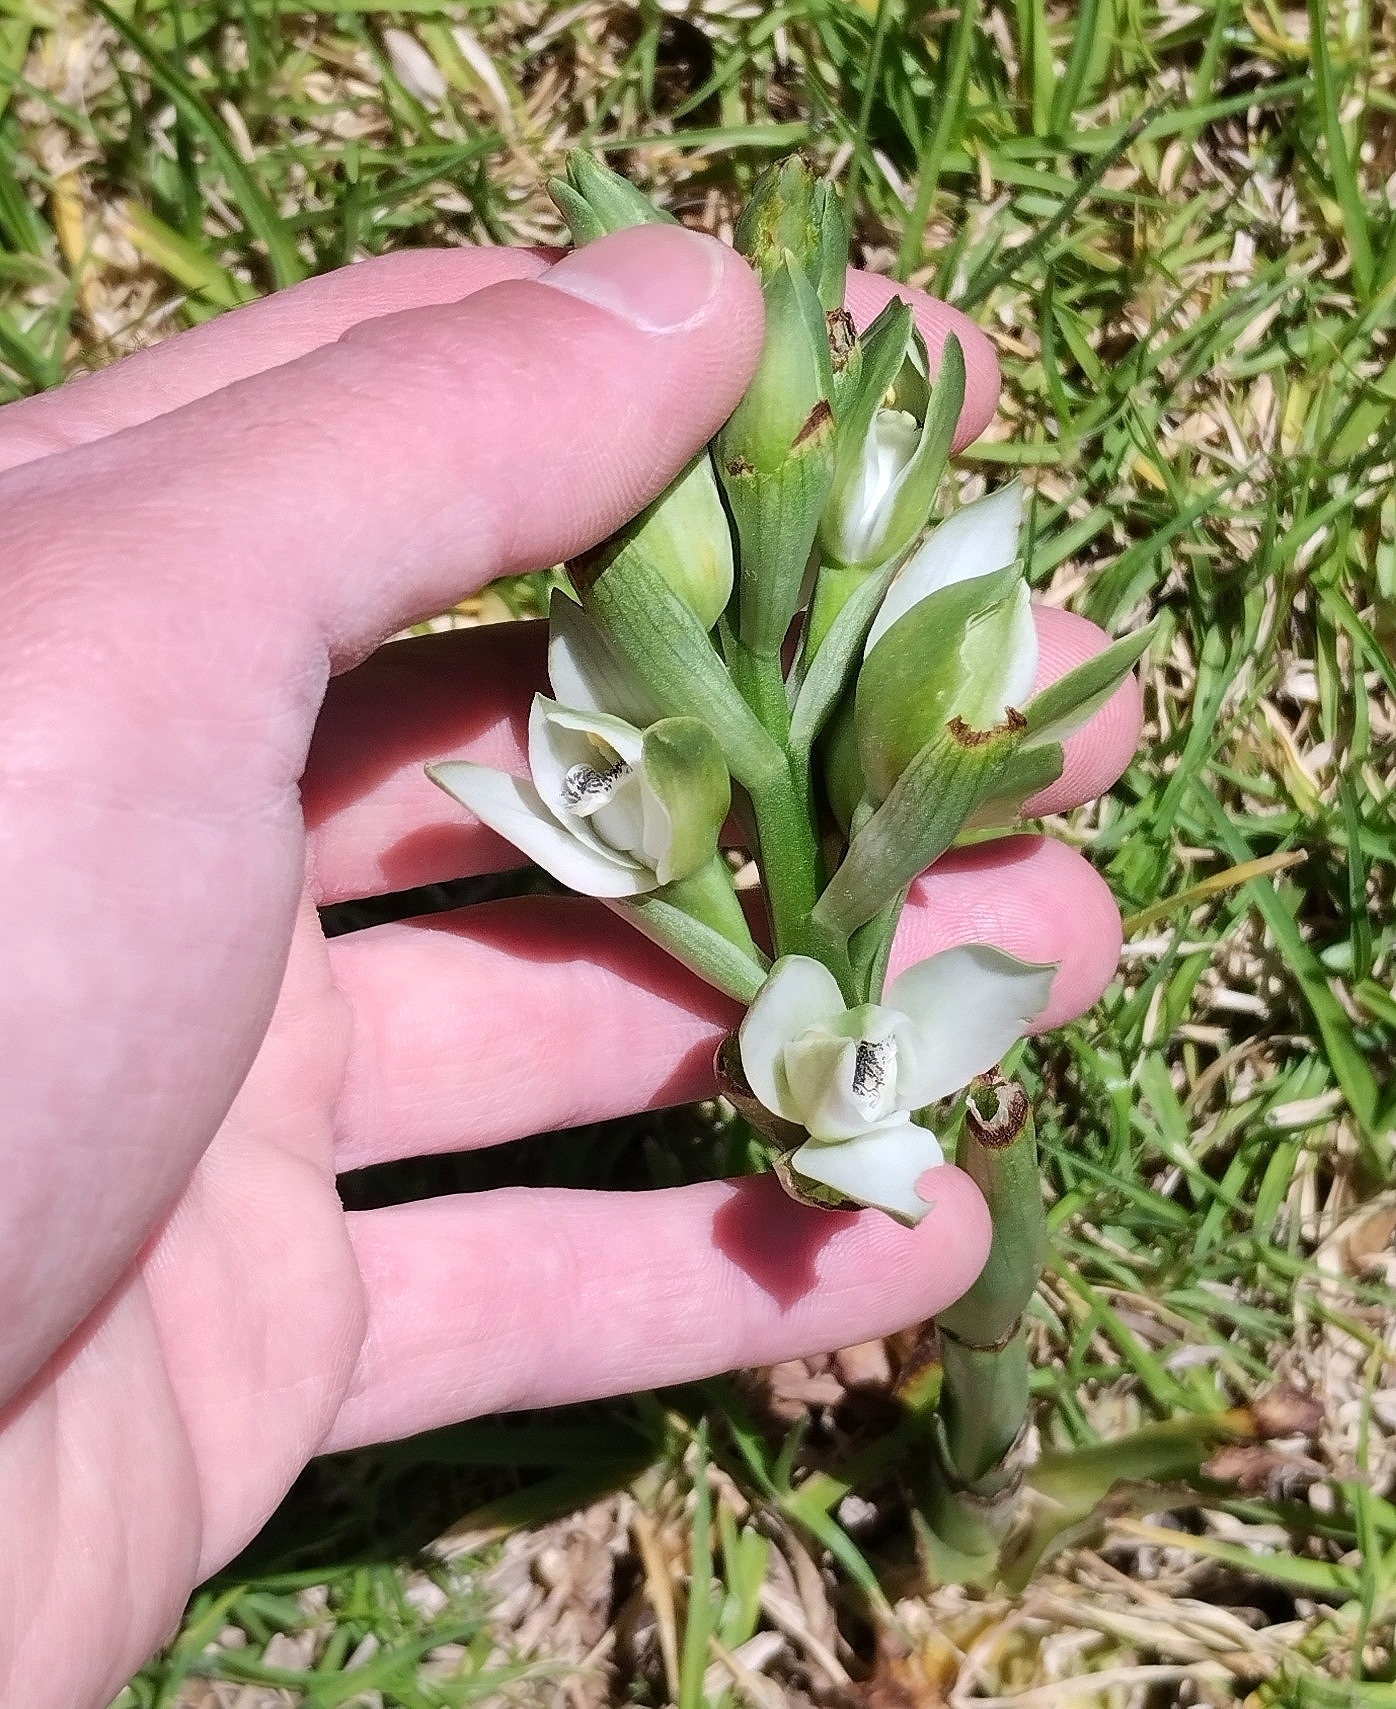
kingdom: Plantae
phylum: Tracheophyta
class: Liliopsida
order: Asparagales
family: Orchidaceae
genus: Chloraea
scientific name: Chloraea membranacea
